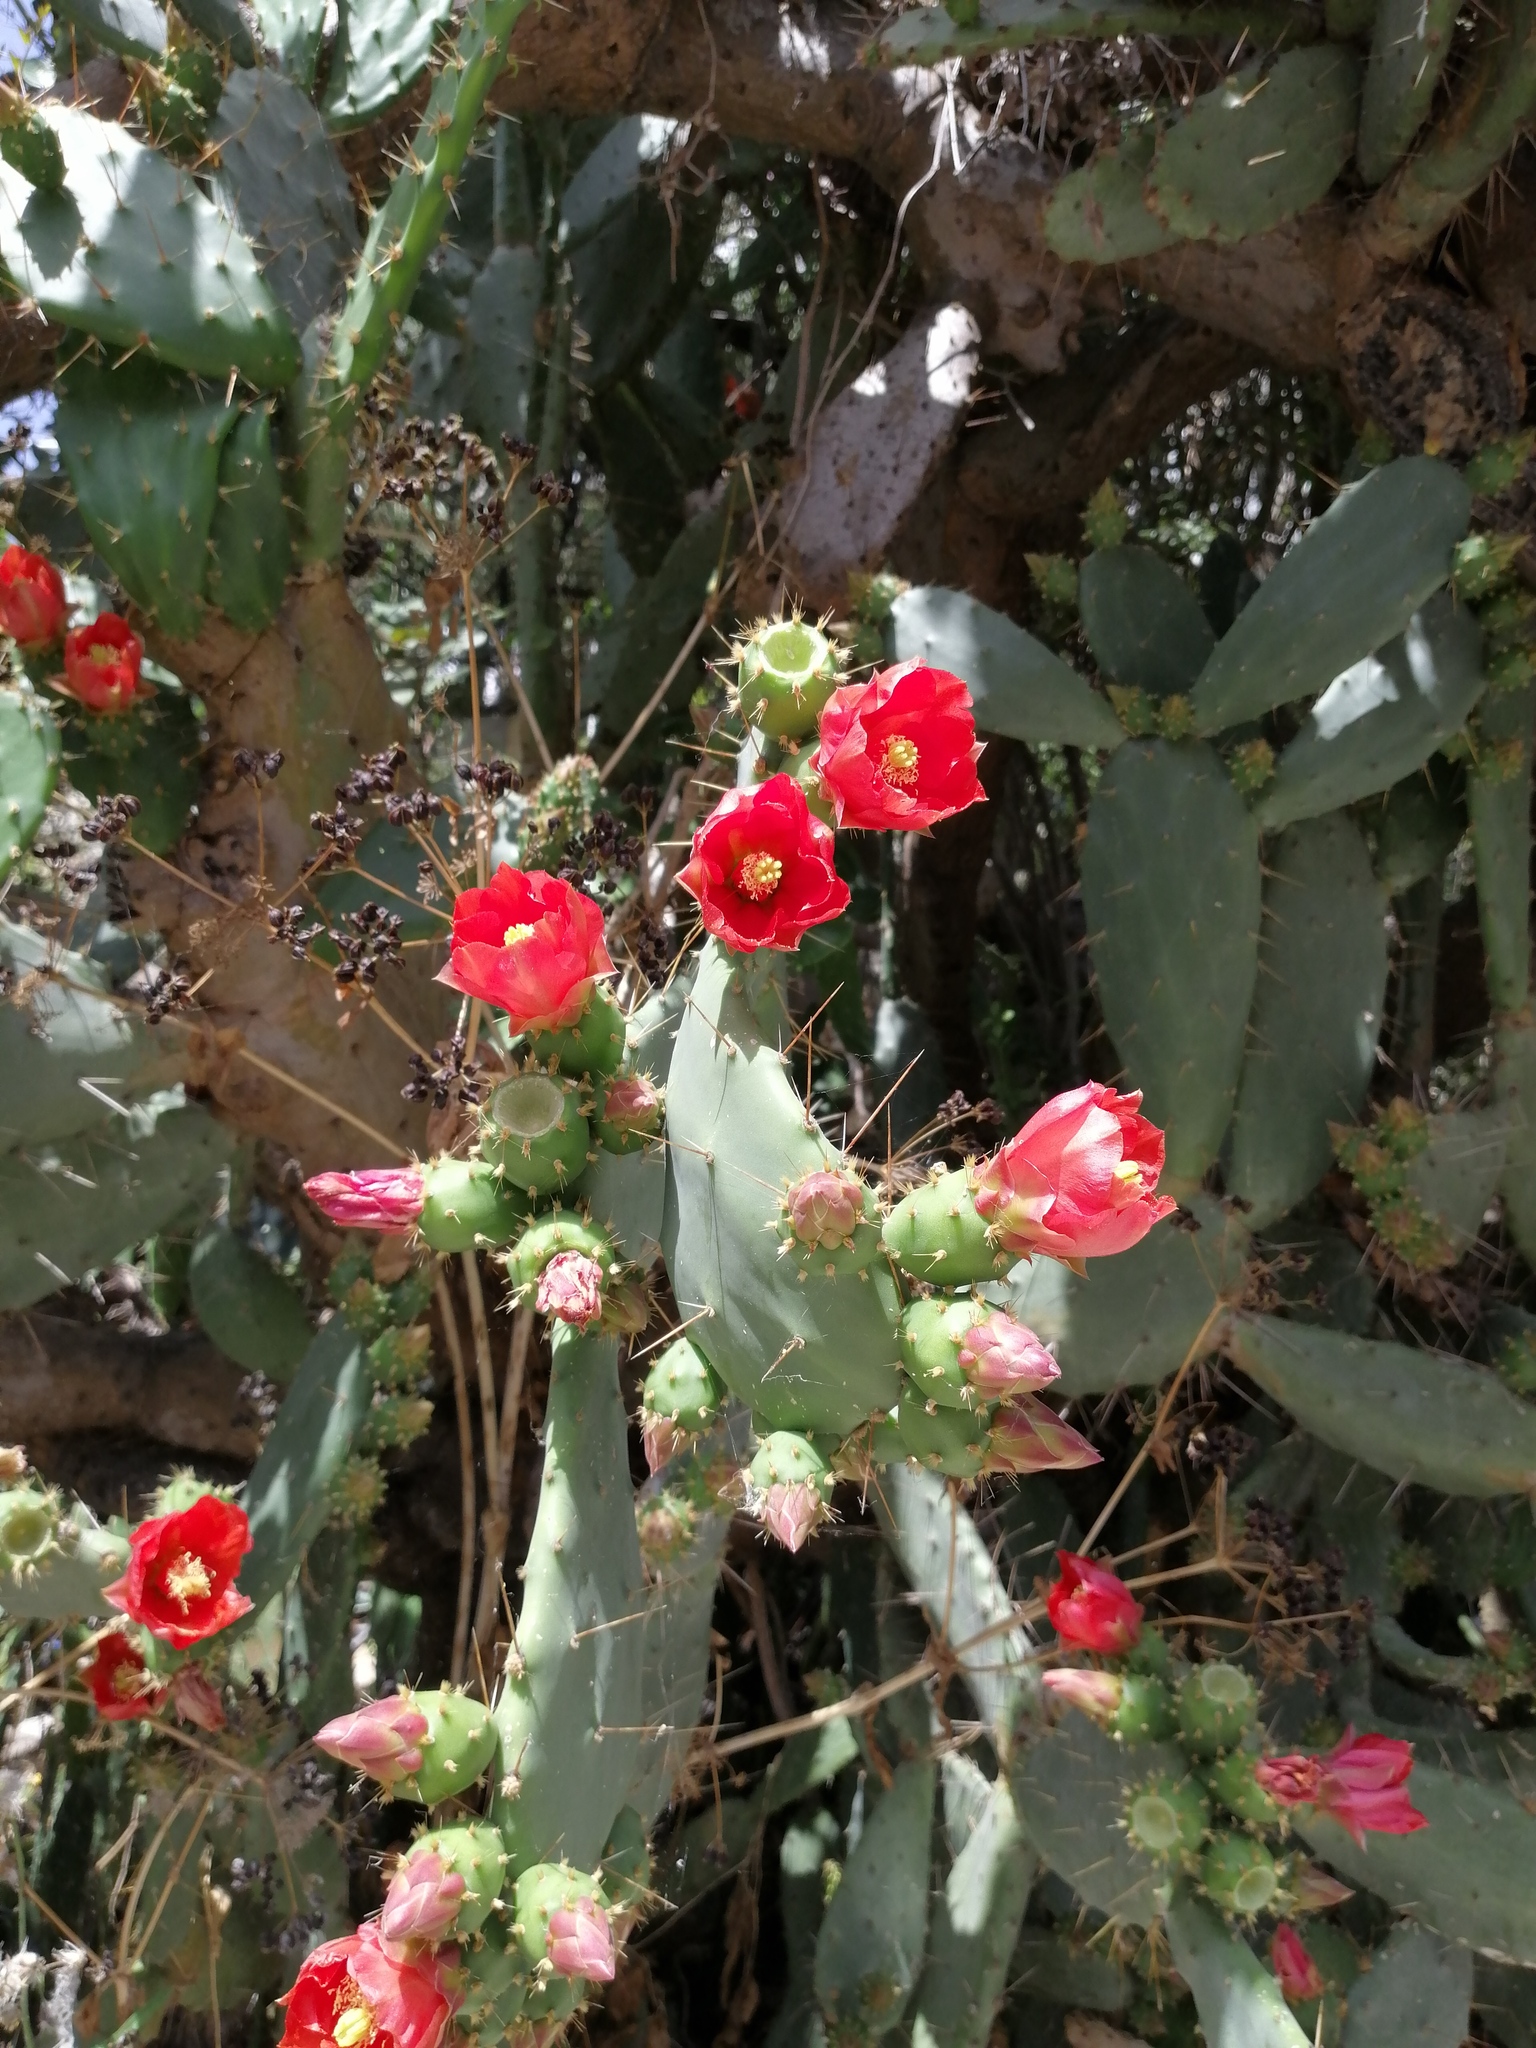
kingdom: Plantae
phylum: Tracheophyta
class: Magnoliopsida
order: Caryophyllales
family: Cactaceae
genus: Opuntia
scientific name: Opuntia elatior
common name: Tuna
